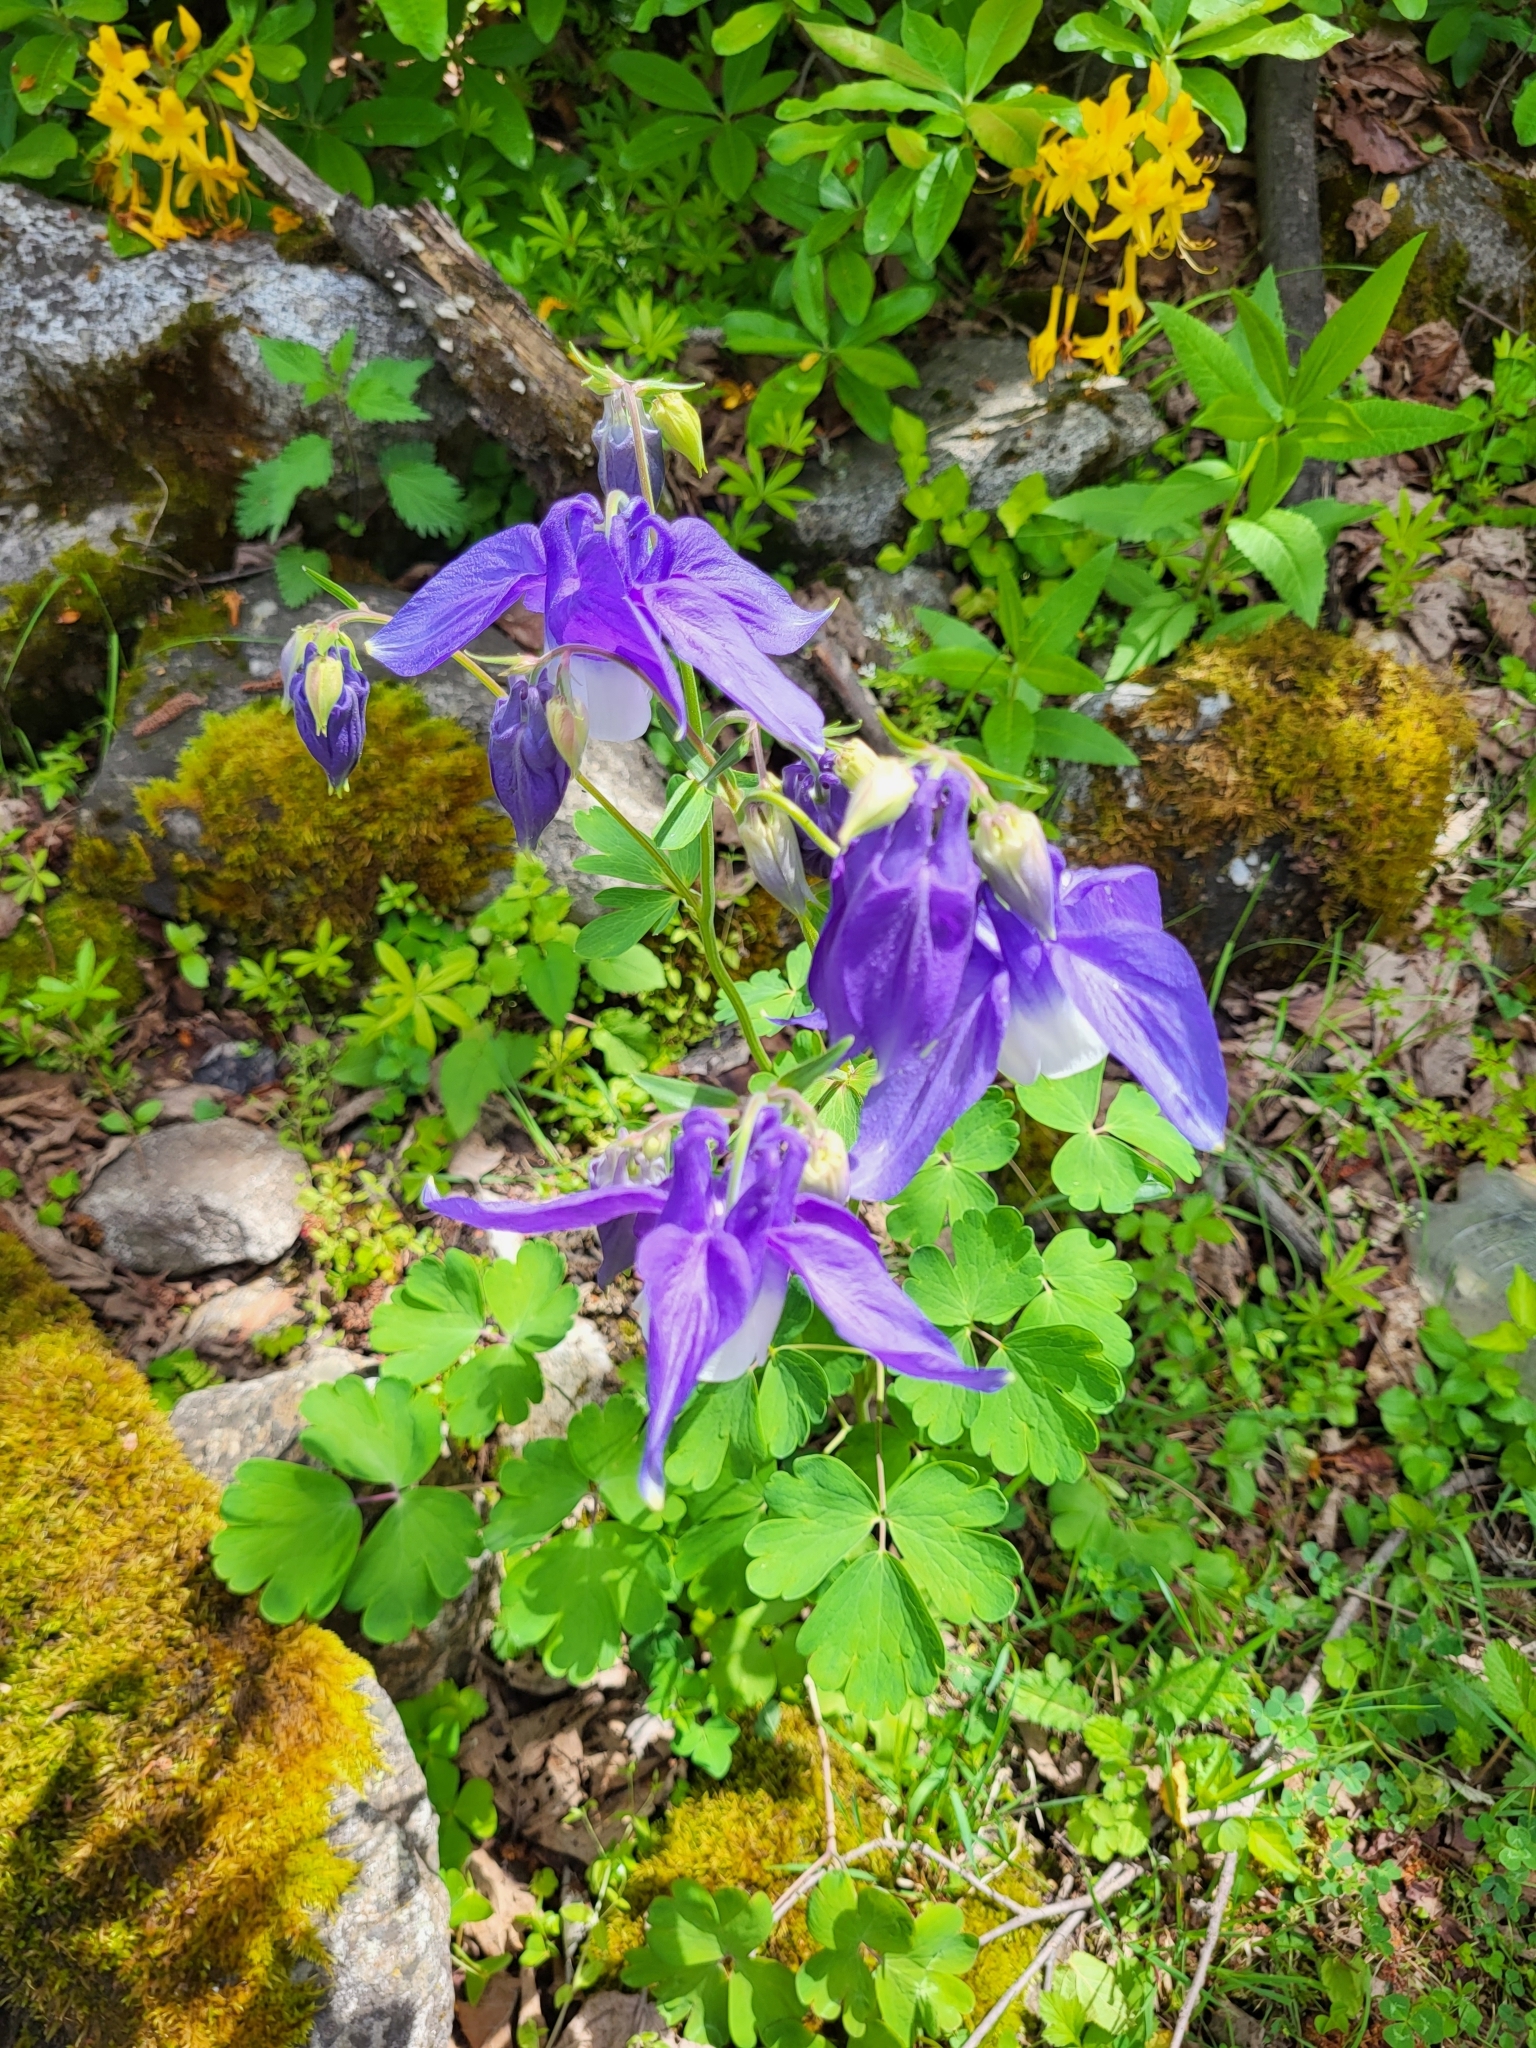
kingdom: Plantae
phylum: Tracheophyta
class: Magnoliopsida
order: Ranunculales
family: Ranunculaceae
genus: Aquilegia
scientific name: Aquilegia olympica
